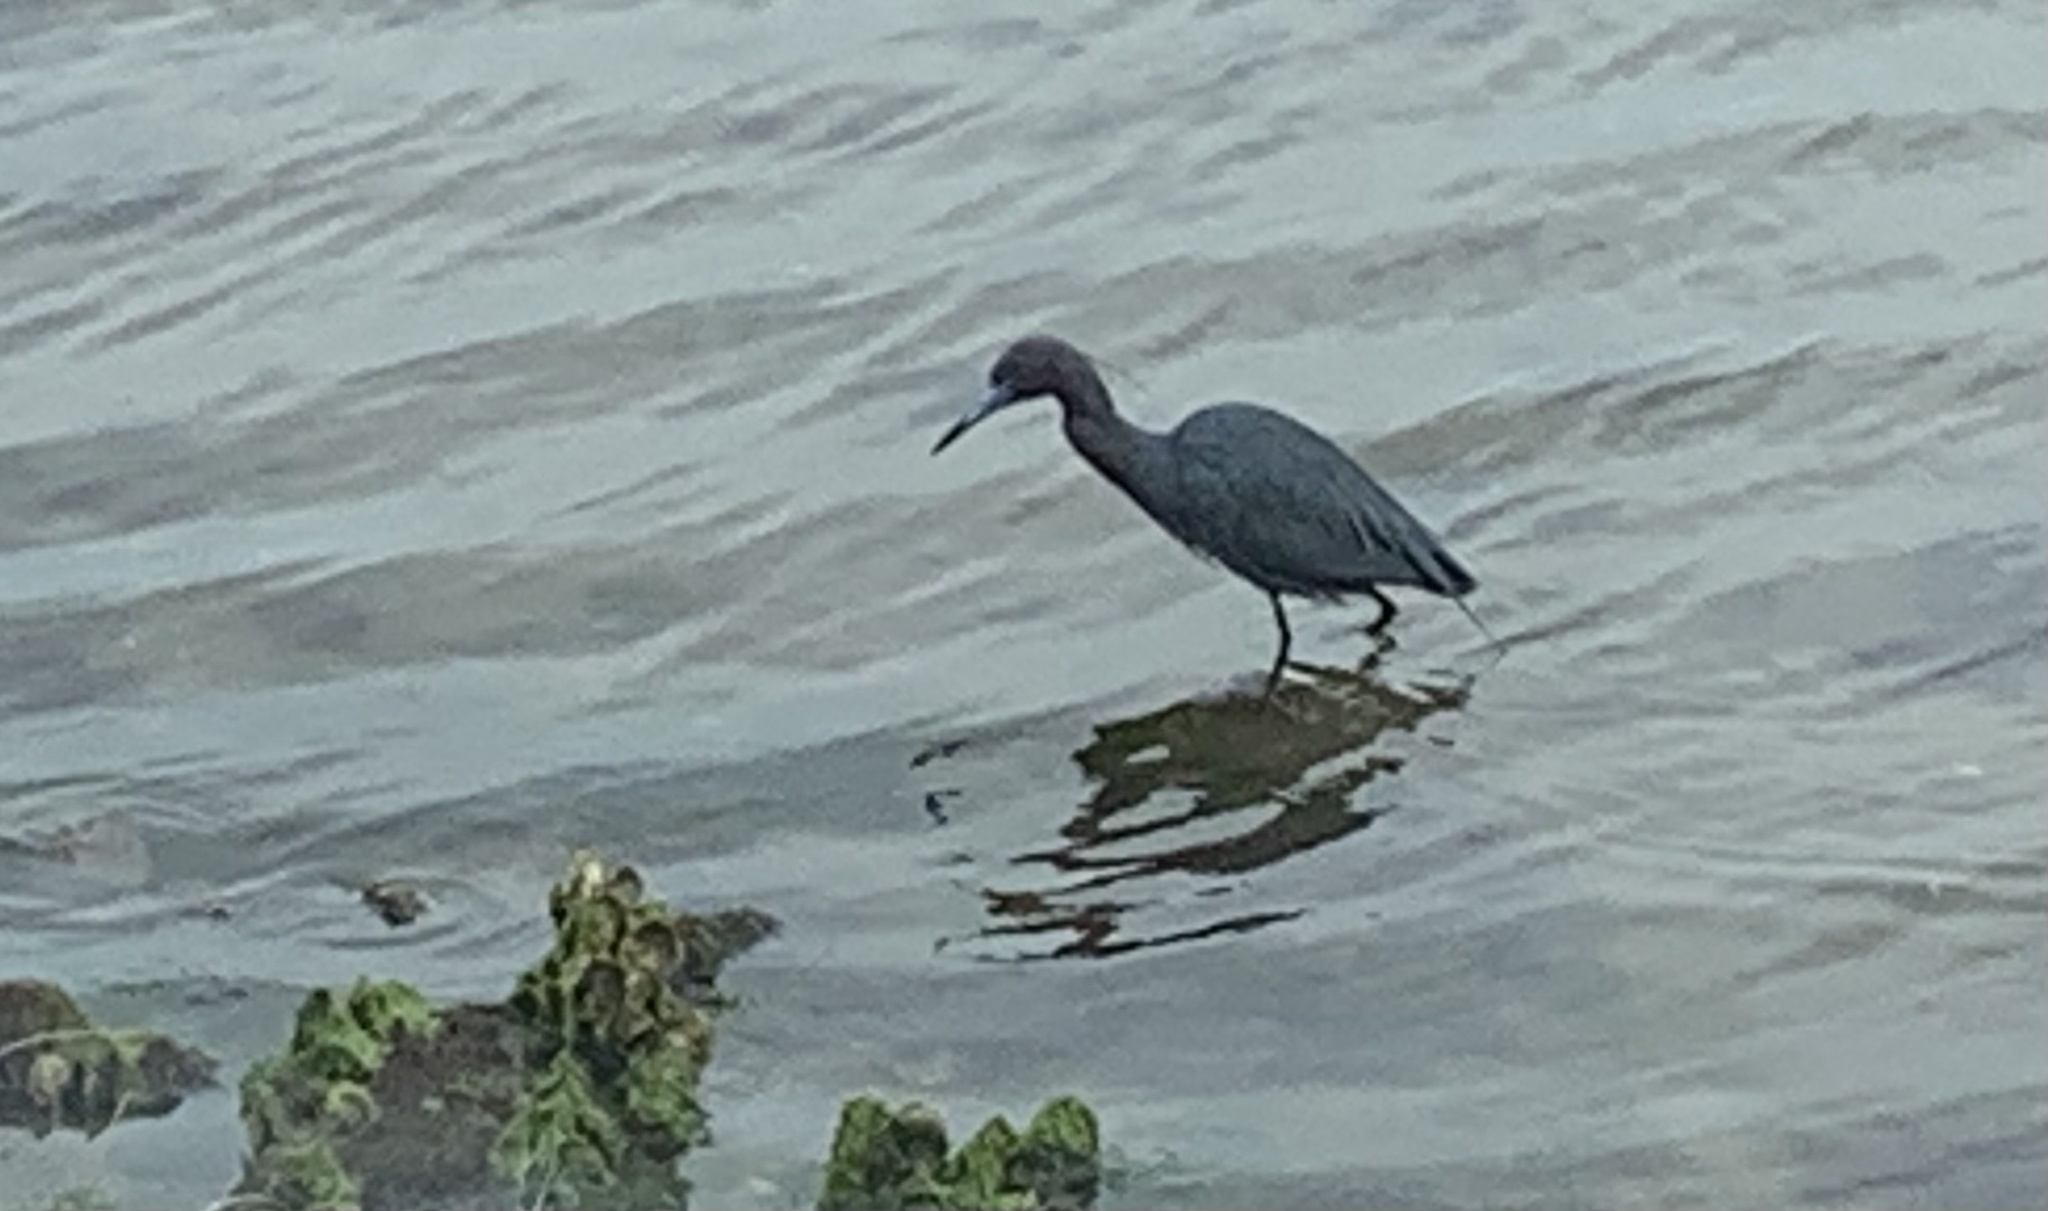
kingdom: Animalia
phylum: Chordata
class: Aves
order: Pelecaniformes
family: Ardeidae
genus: Egretta
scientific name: Egretta caerulea
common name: Little blue heron
